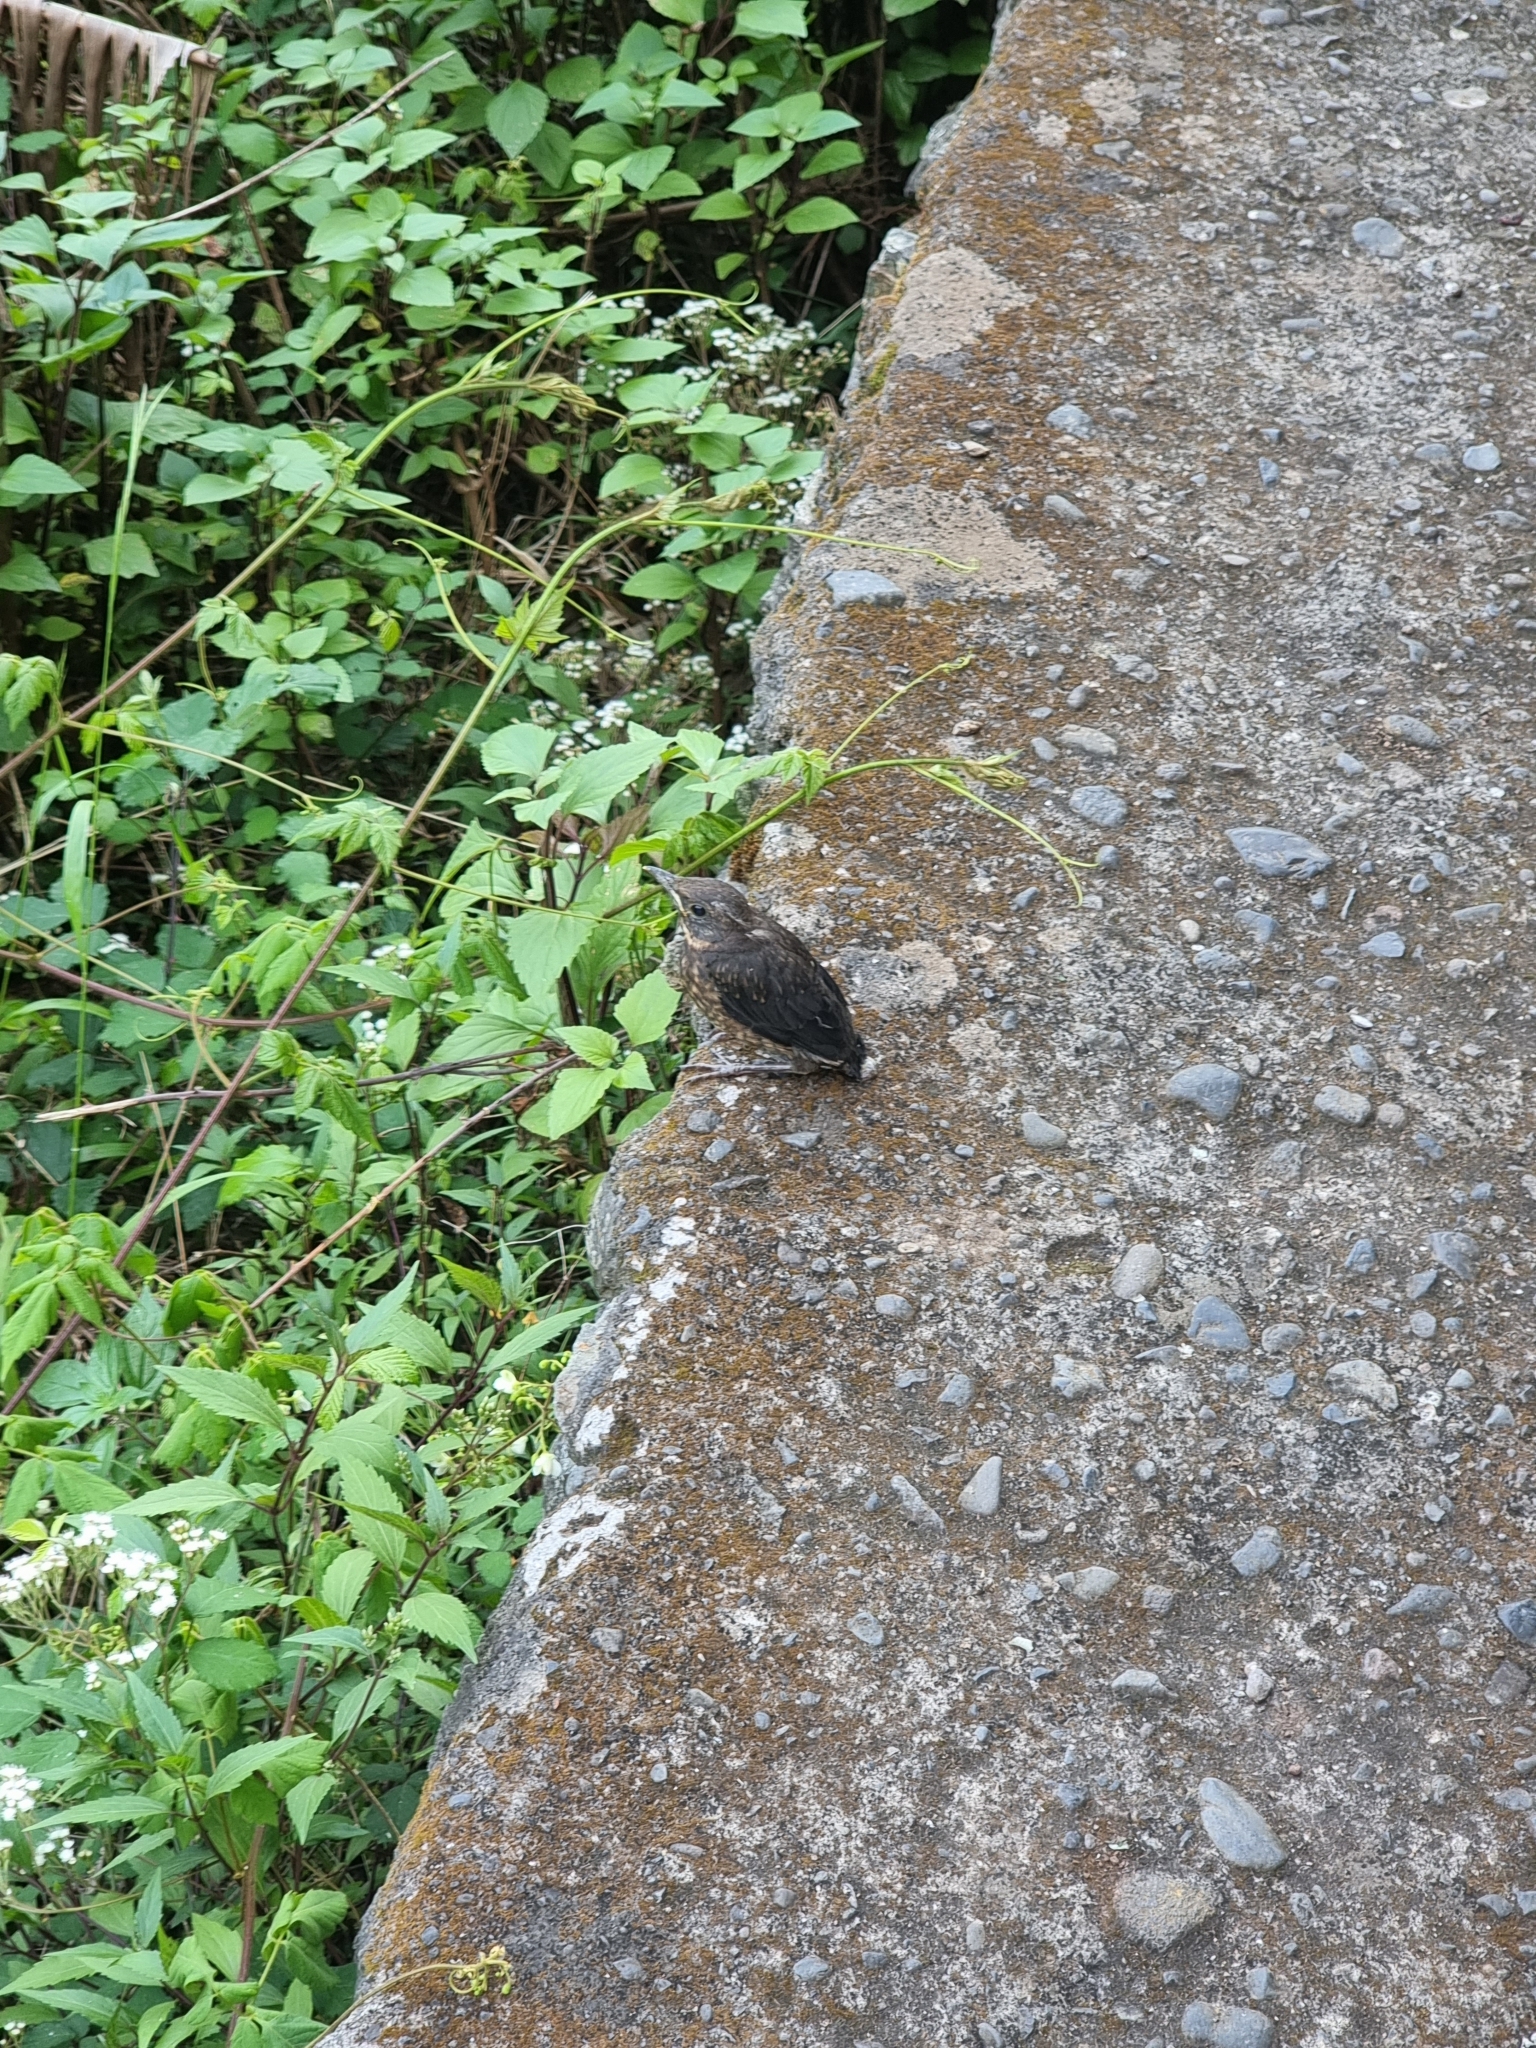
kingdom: Animalia
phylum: Chordata
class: Aves
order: Passeriformes
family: Turdidae
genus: Turdus
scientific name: Turdus merula
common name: Common blackbird
